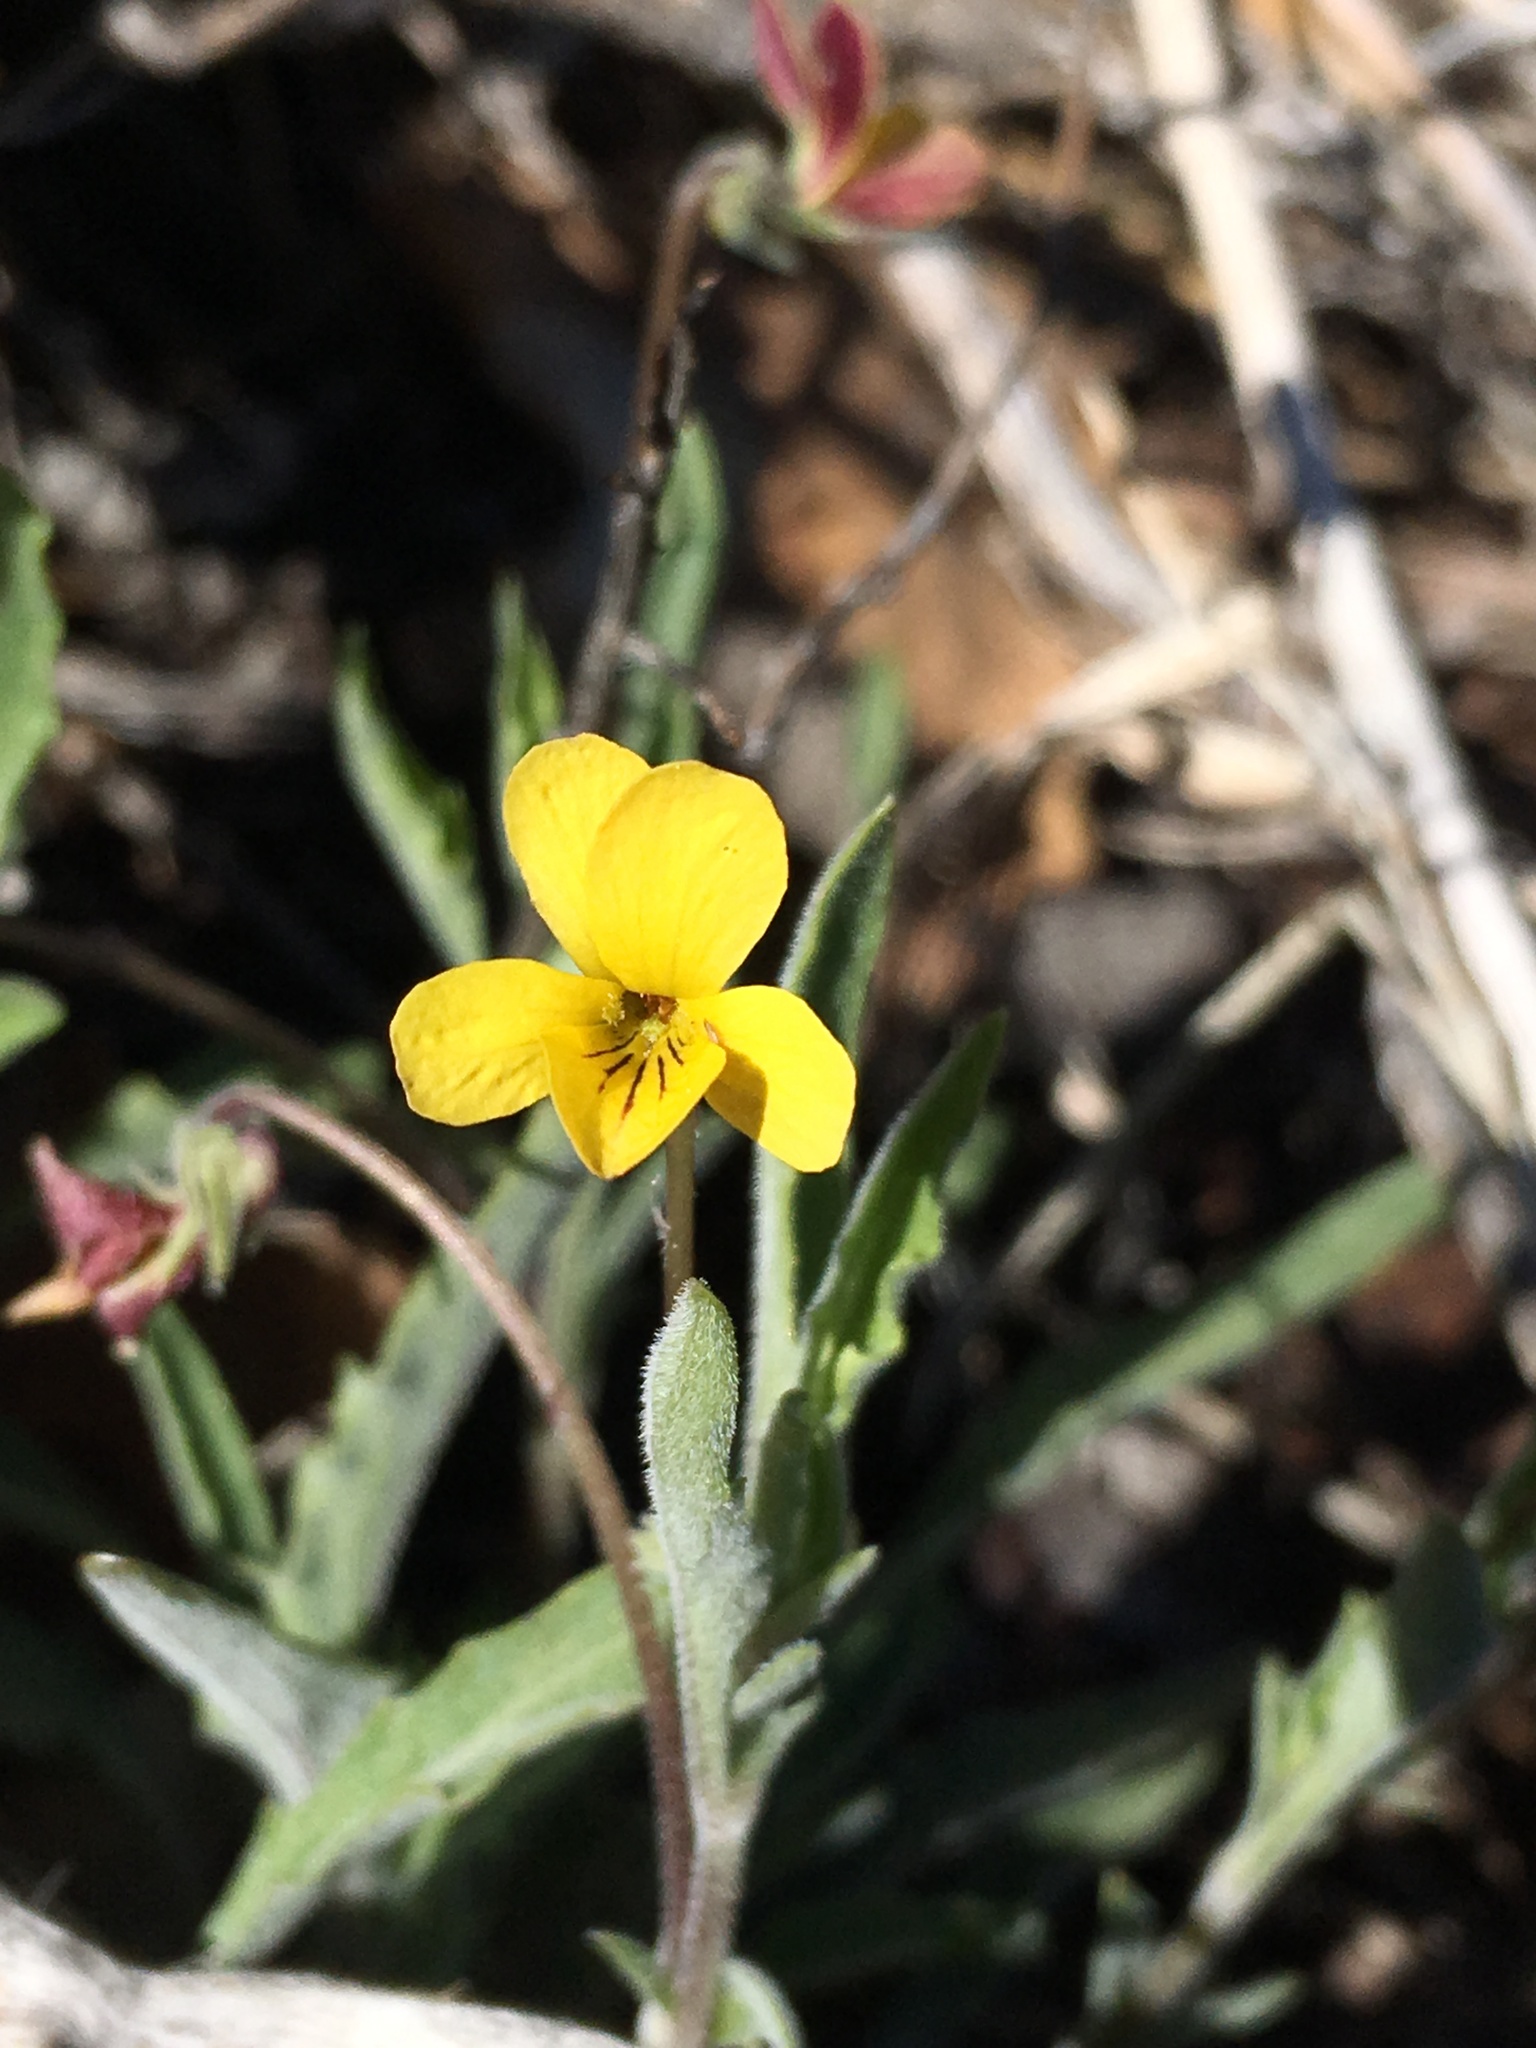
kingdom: Plantae
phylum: Tracheophyta
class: Magnoliopsida
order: Malpighiales
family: Violaceae
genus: Viola
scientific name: Viola pinetorum
